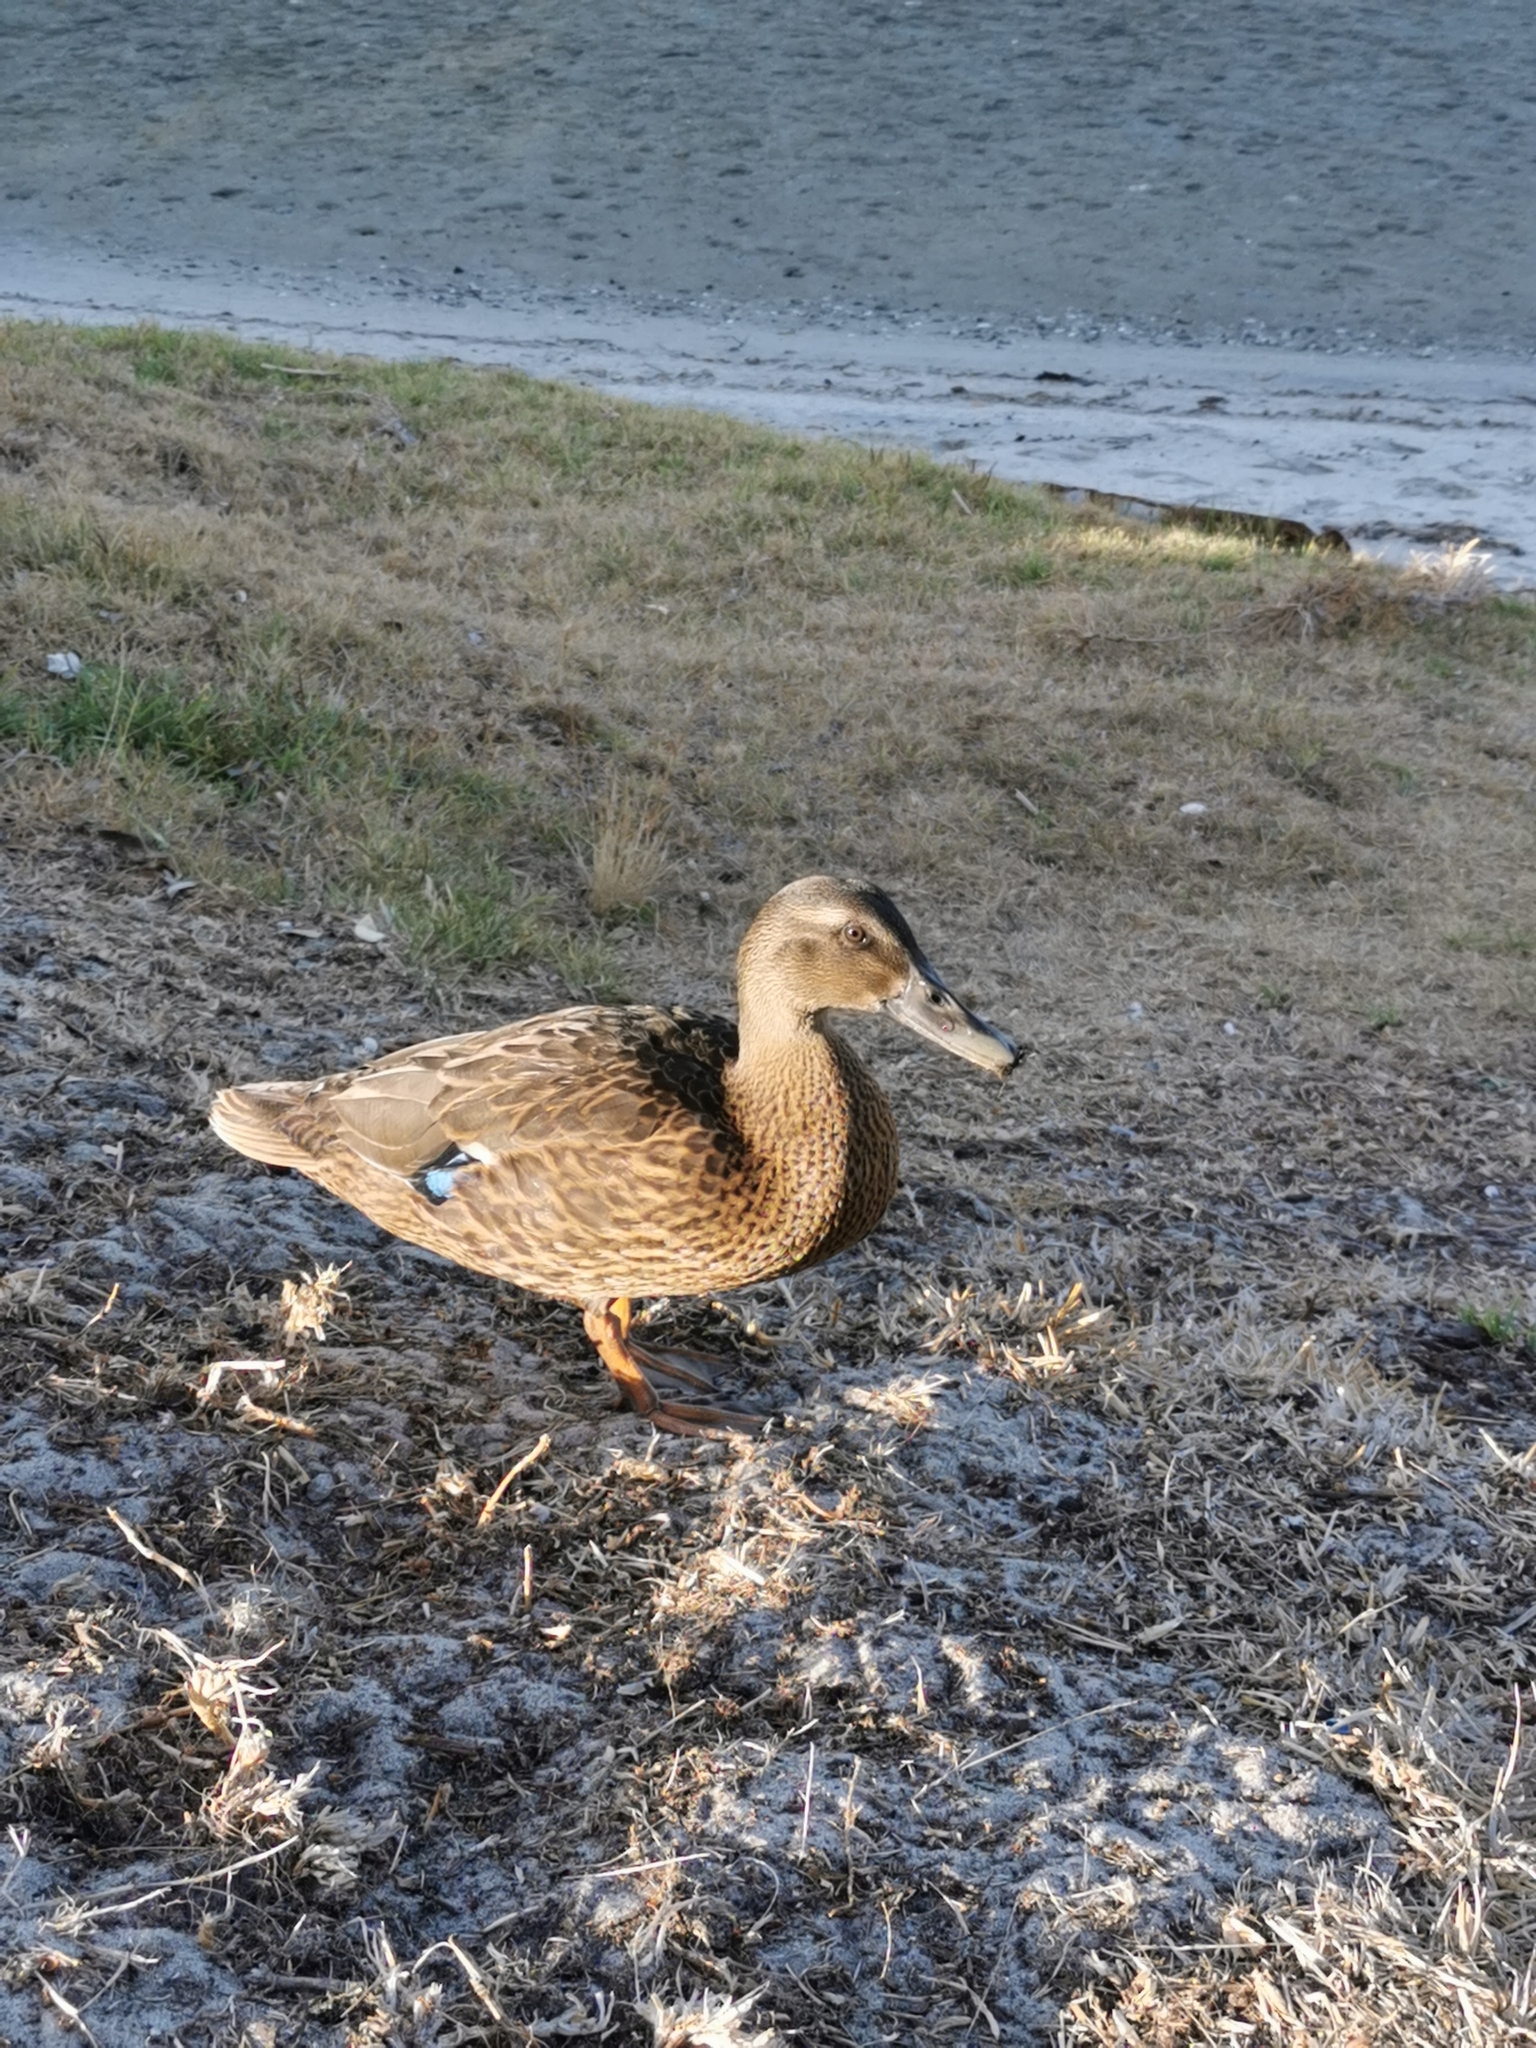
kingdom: Animalia
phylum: Chordata
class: Aves
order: Anseriformes
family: Anatidae
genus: Anas
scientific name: Anas
